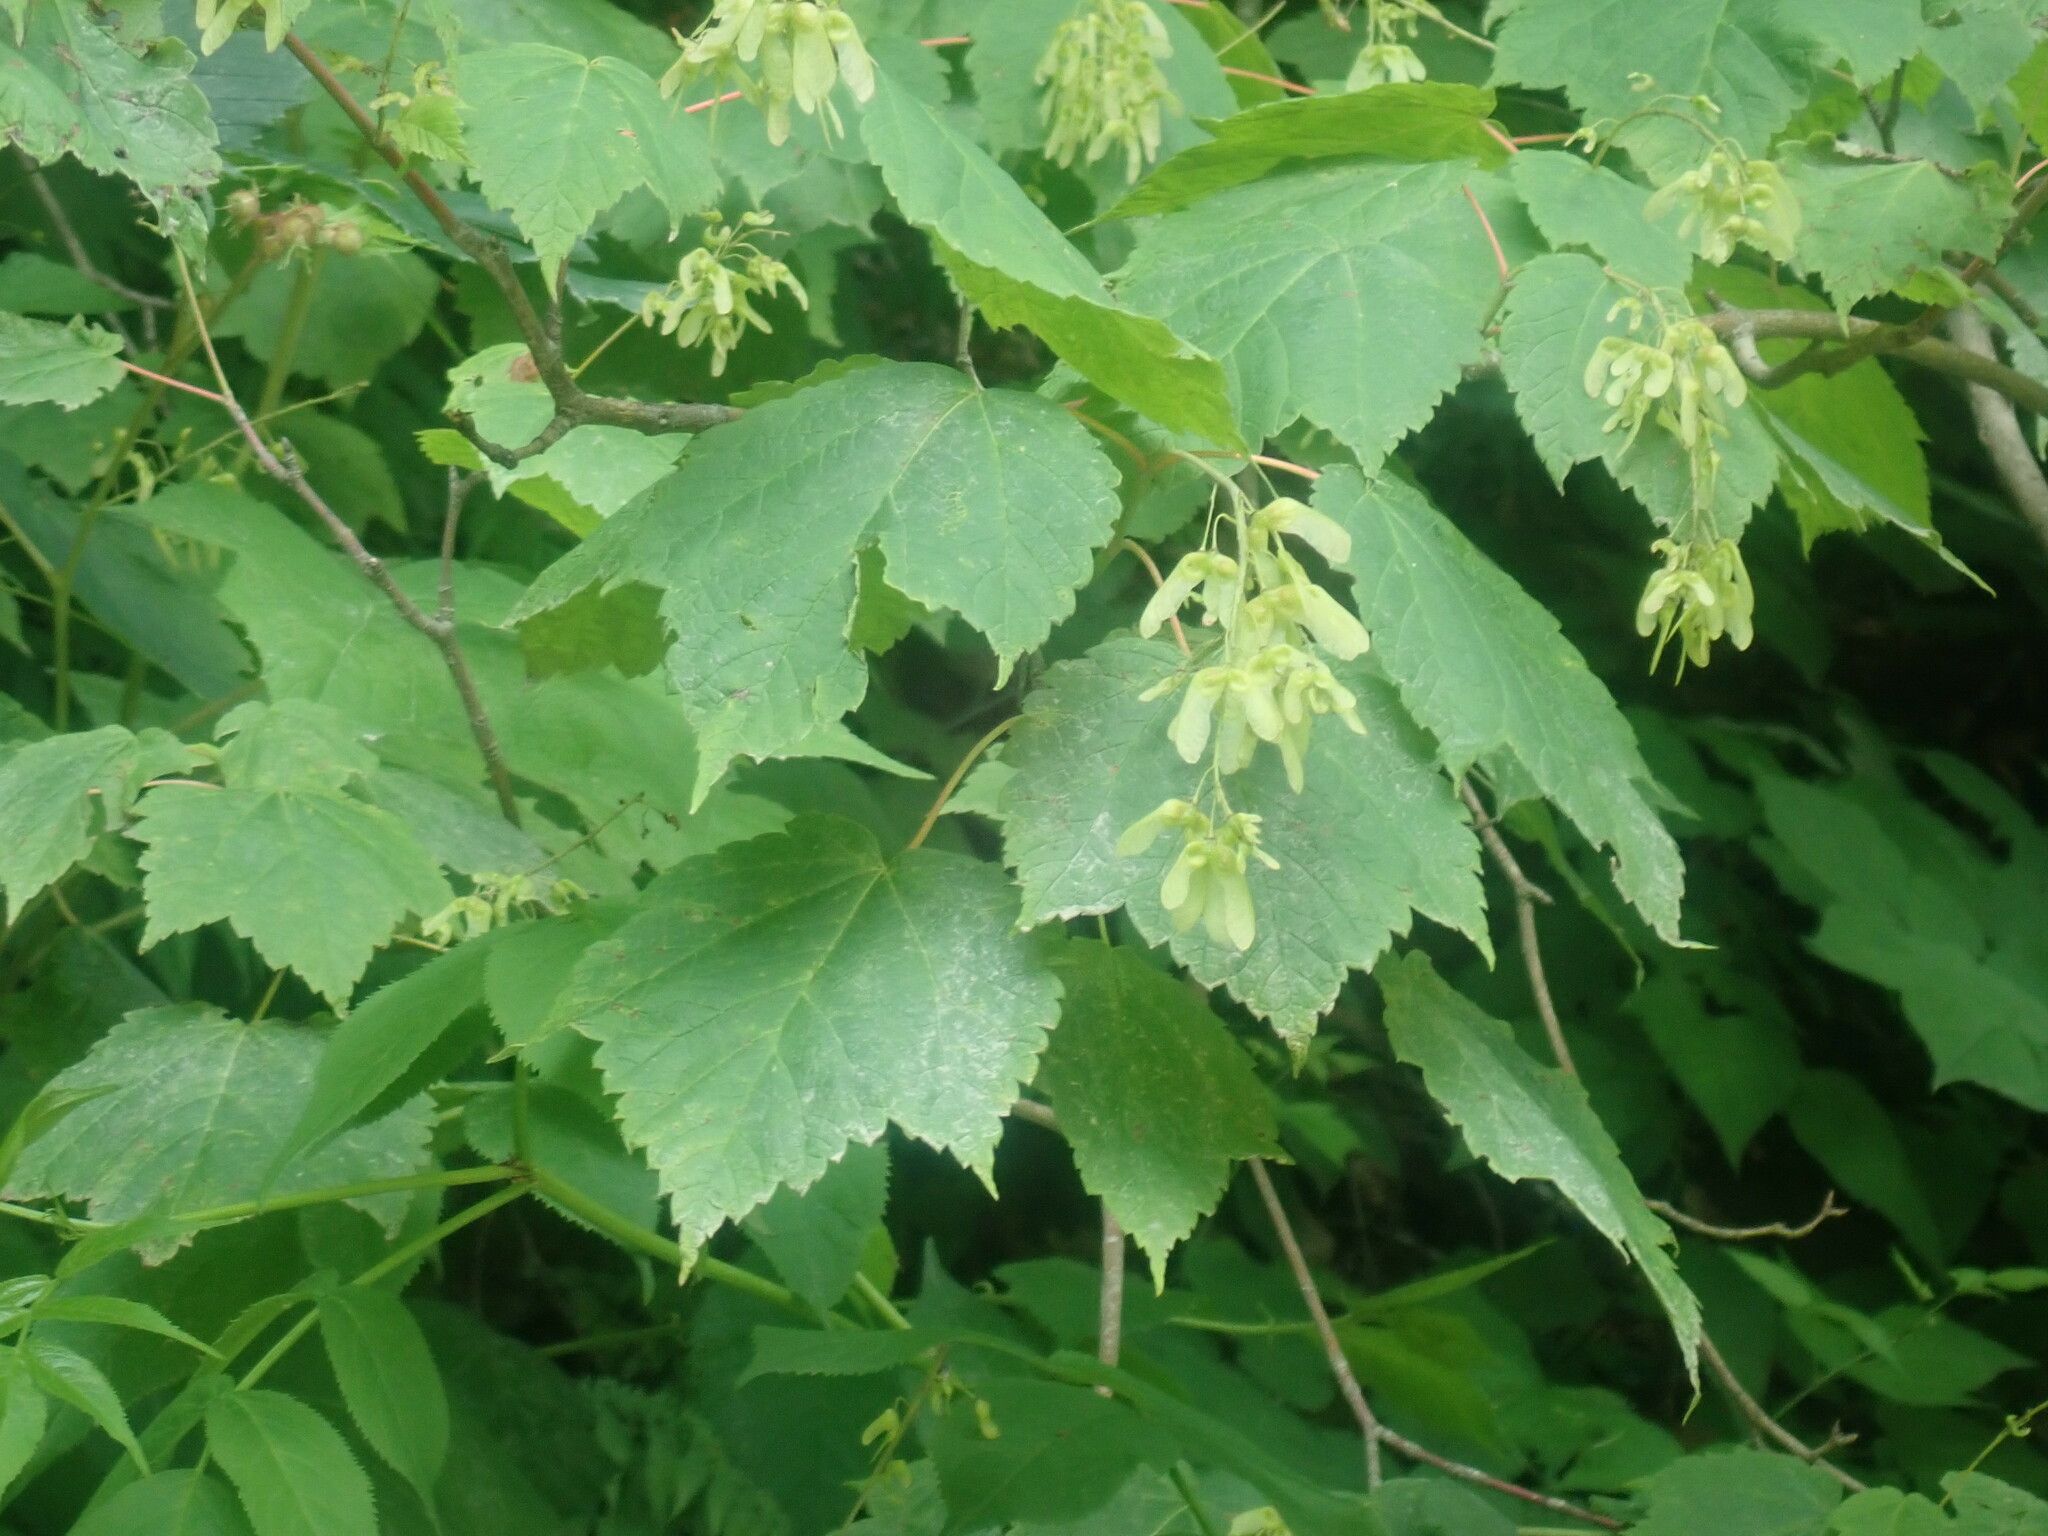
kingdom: Plantae
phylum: Tracheophyta
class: Magnoliopsida
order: Sapindales
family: Sapindaceae
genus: Acer
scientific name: Acer spicatum
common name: Mountain maple
